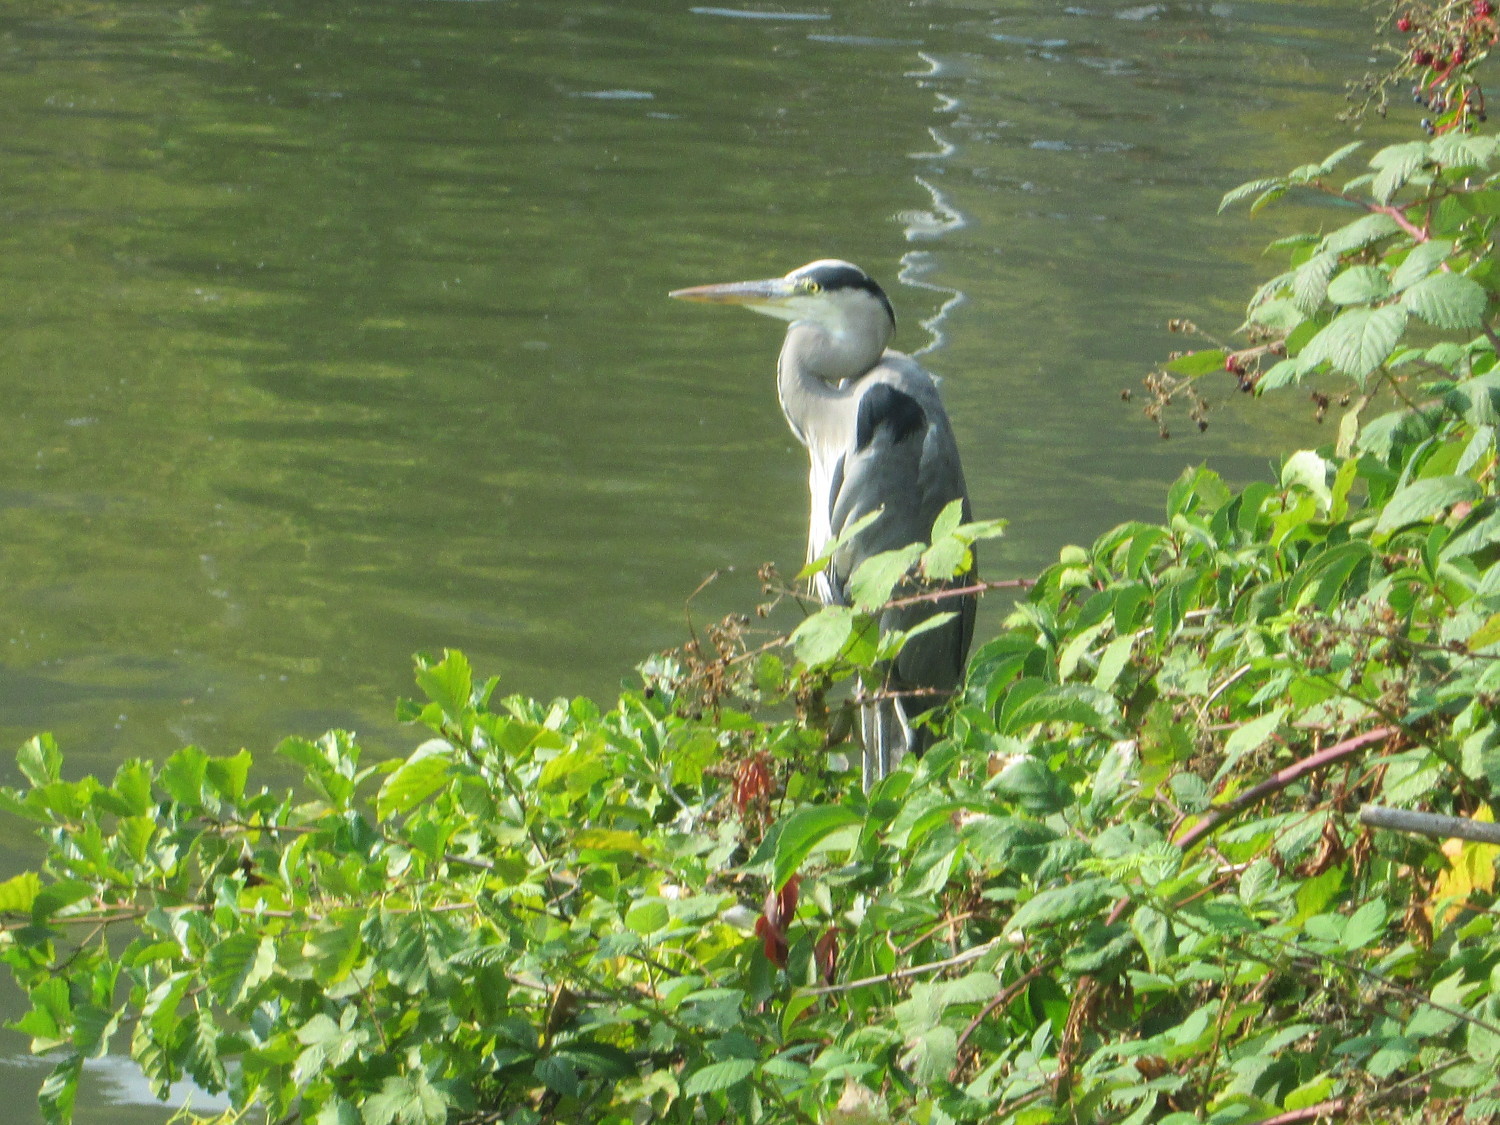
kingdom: Animalia
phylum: Chordata
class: Aves
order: Pelecaniformes
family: Ardeidae
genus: Ardea
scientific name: Ardea cinerea
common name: Grey heron
